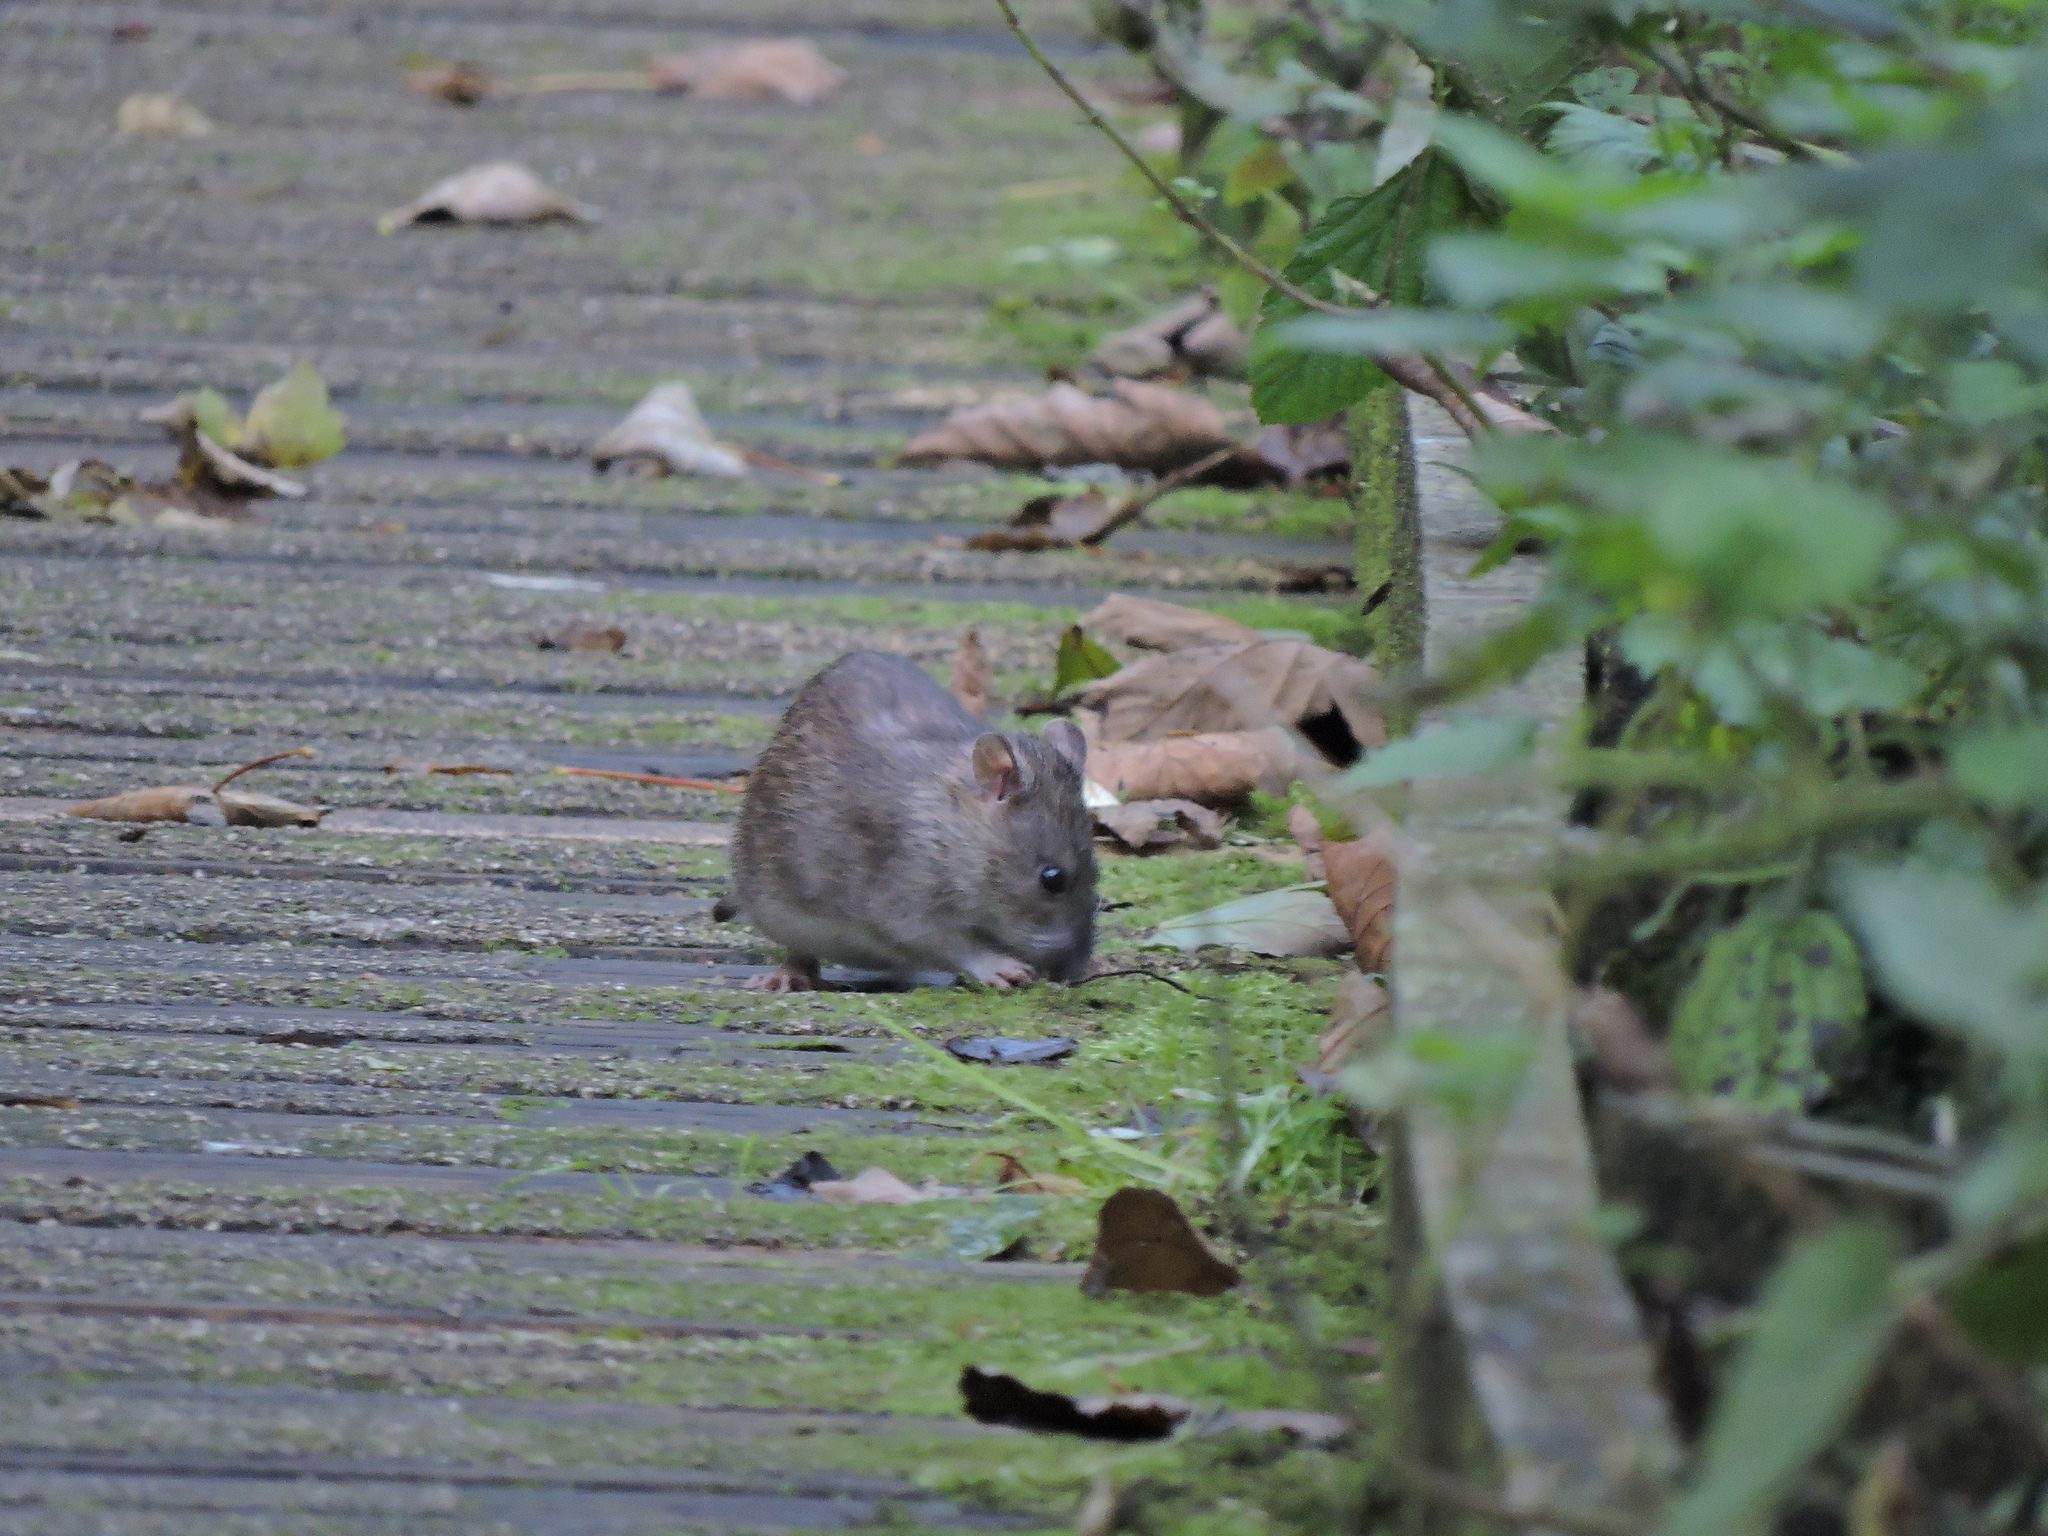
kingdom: Animalia
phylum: Chordata
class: Mammalia
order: Rodentia
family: Muridae
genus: Rattus
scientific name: Rattus norvegicus
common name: Brown rat
